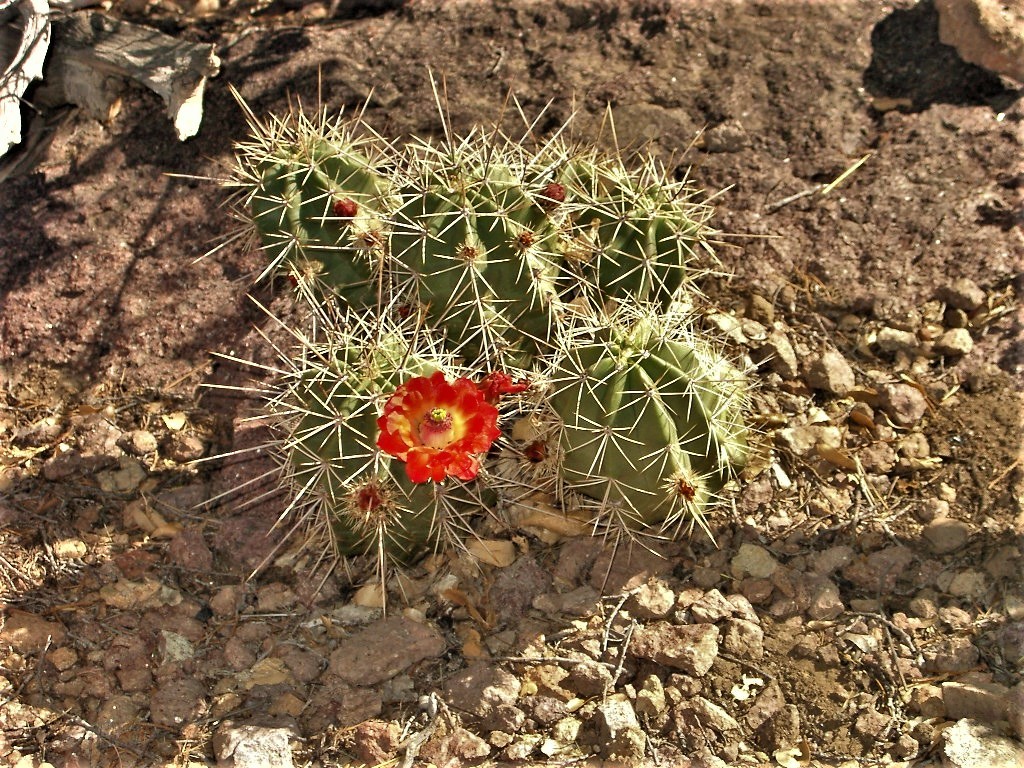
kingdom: Plantae
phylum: Tracheophyta
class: Magnoliopsida
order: Caryophyllales
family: Cactaceae
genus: Echinocereus
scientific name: Echinocereus coccineus
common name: Scarlet hedgehog cactus
